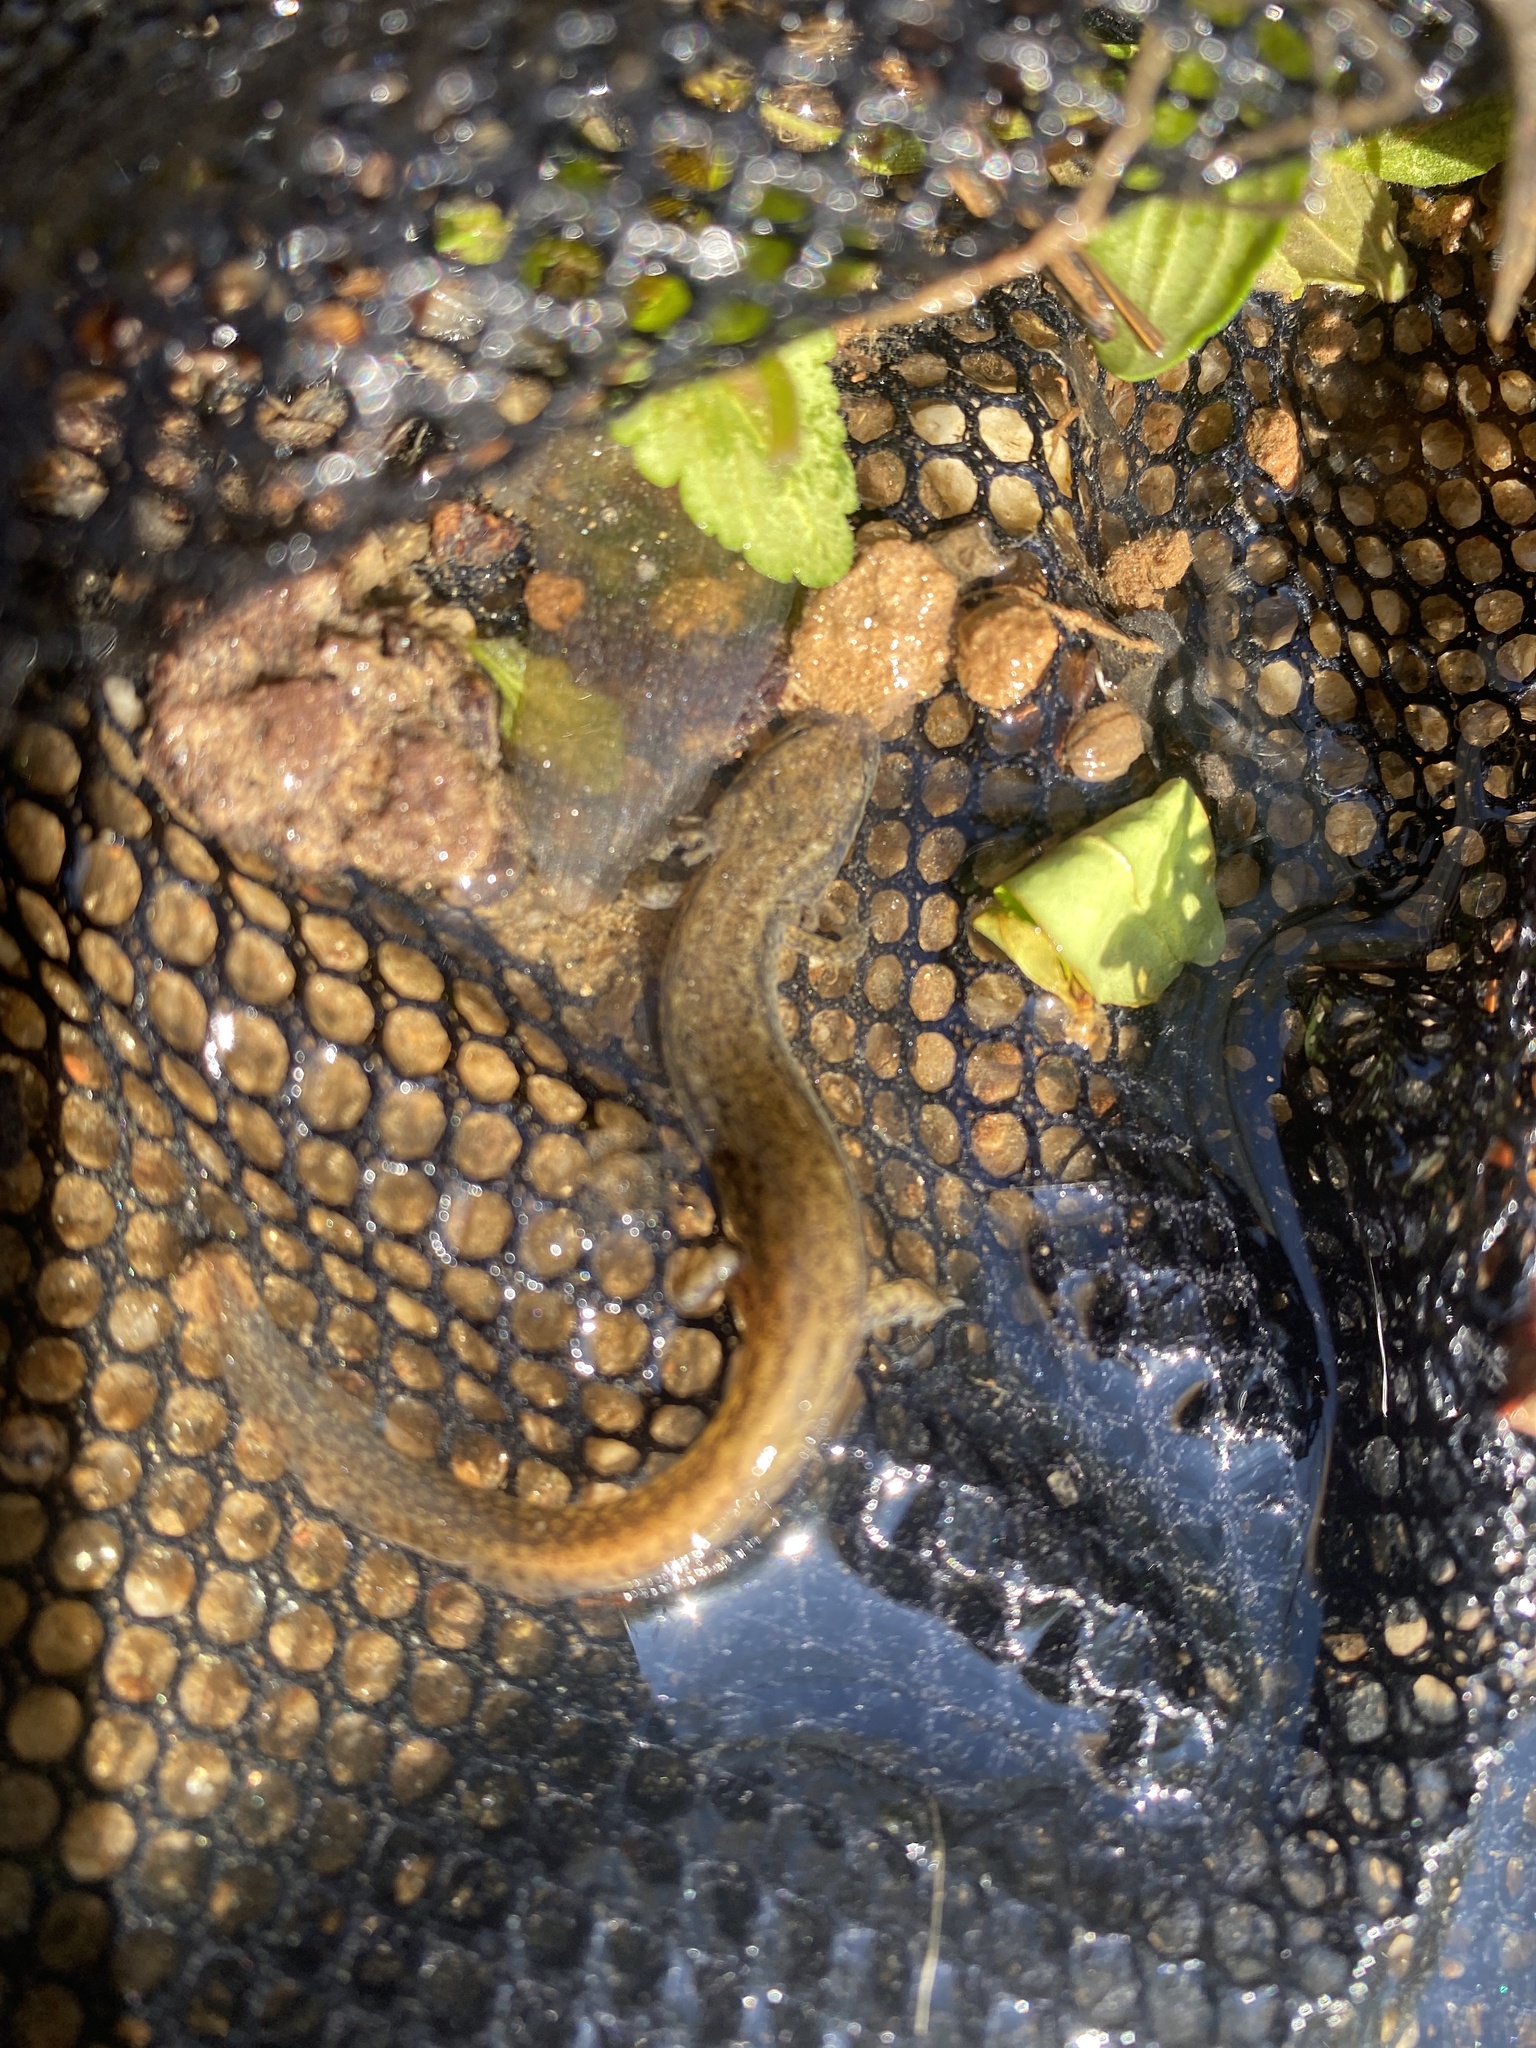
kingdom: Animalia
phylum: Chordata
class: Amphibia
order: Caudata
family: Plethodontidae
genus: Eurycea
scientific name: Eurycea cirrigera
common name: Southern two-lined salamander
